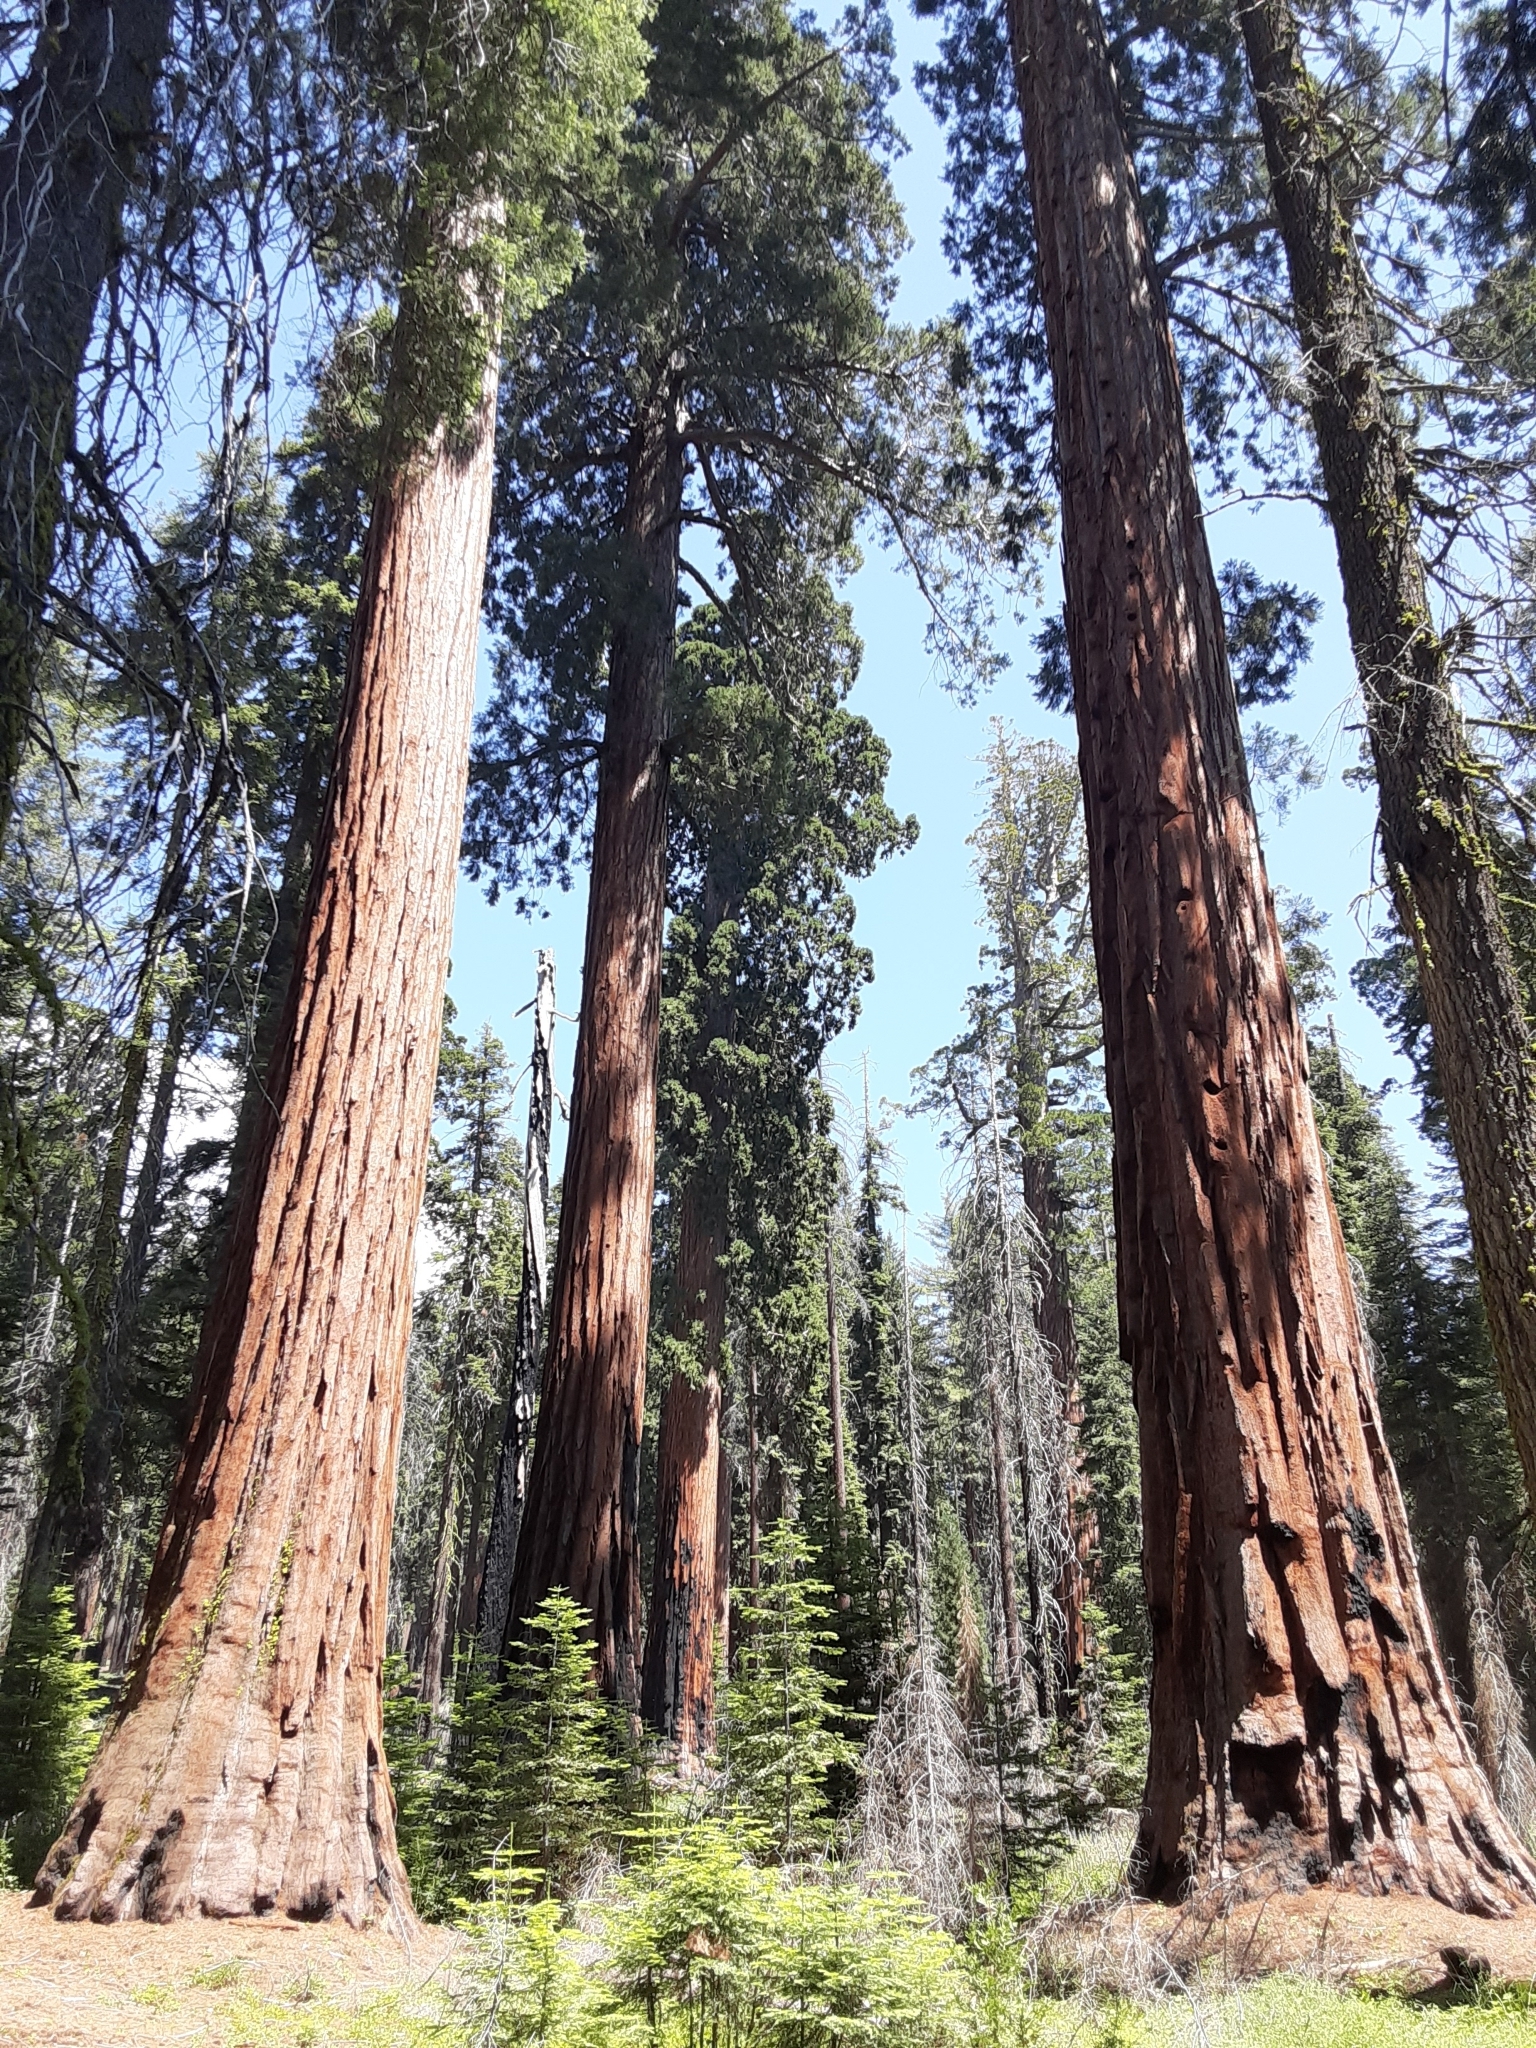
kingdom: Plantae
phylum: Tracheophyta
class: Pinopsida
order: Pinales
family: Cupressaceae
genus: Sequoiadendron
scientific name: Sequoiadendron giganteum
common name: Wellingtonia
